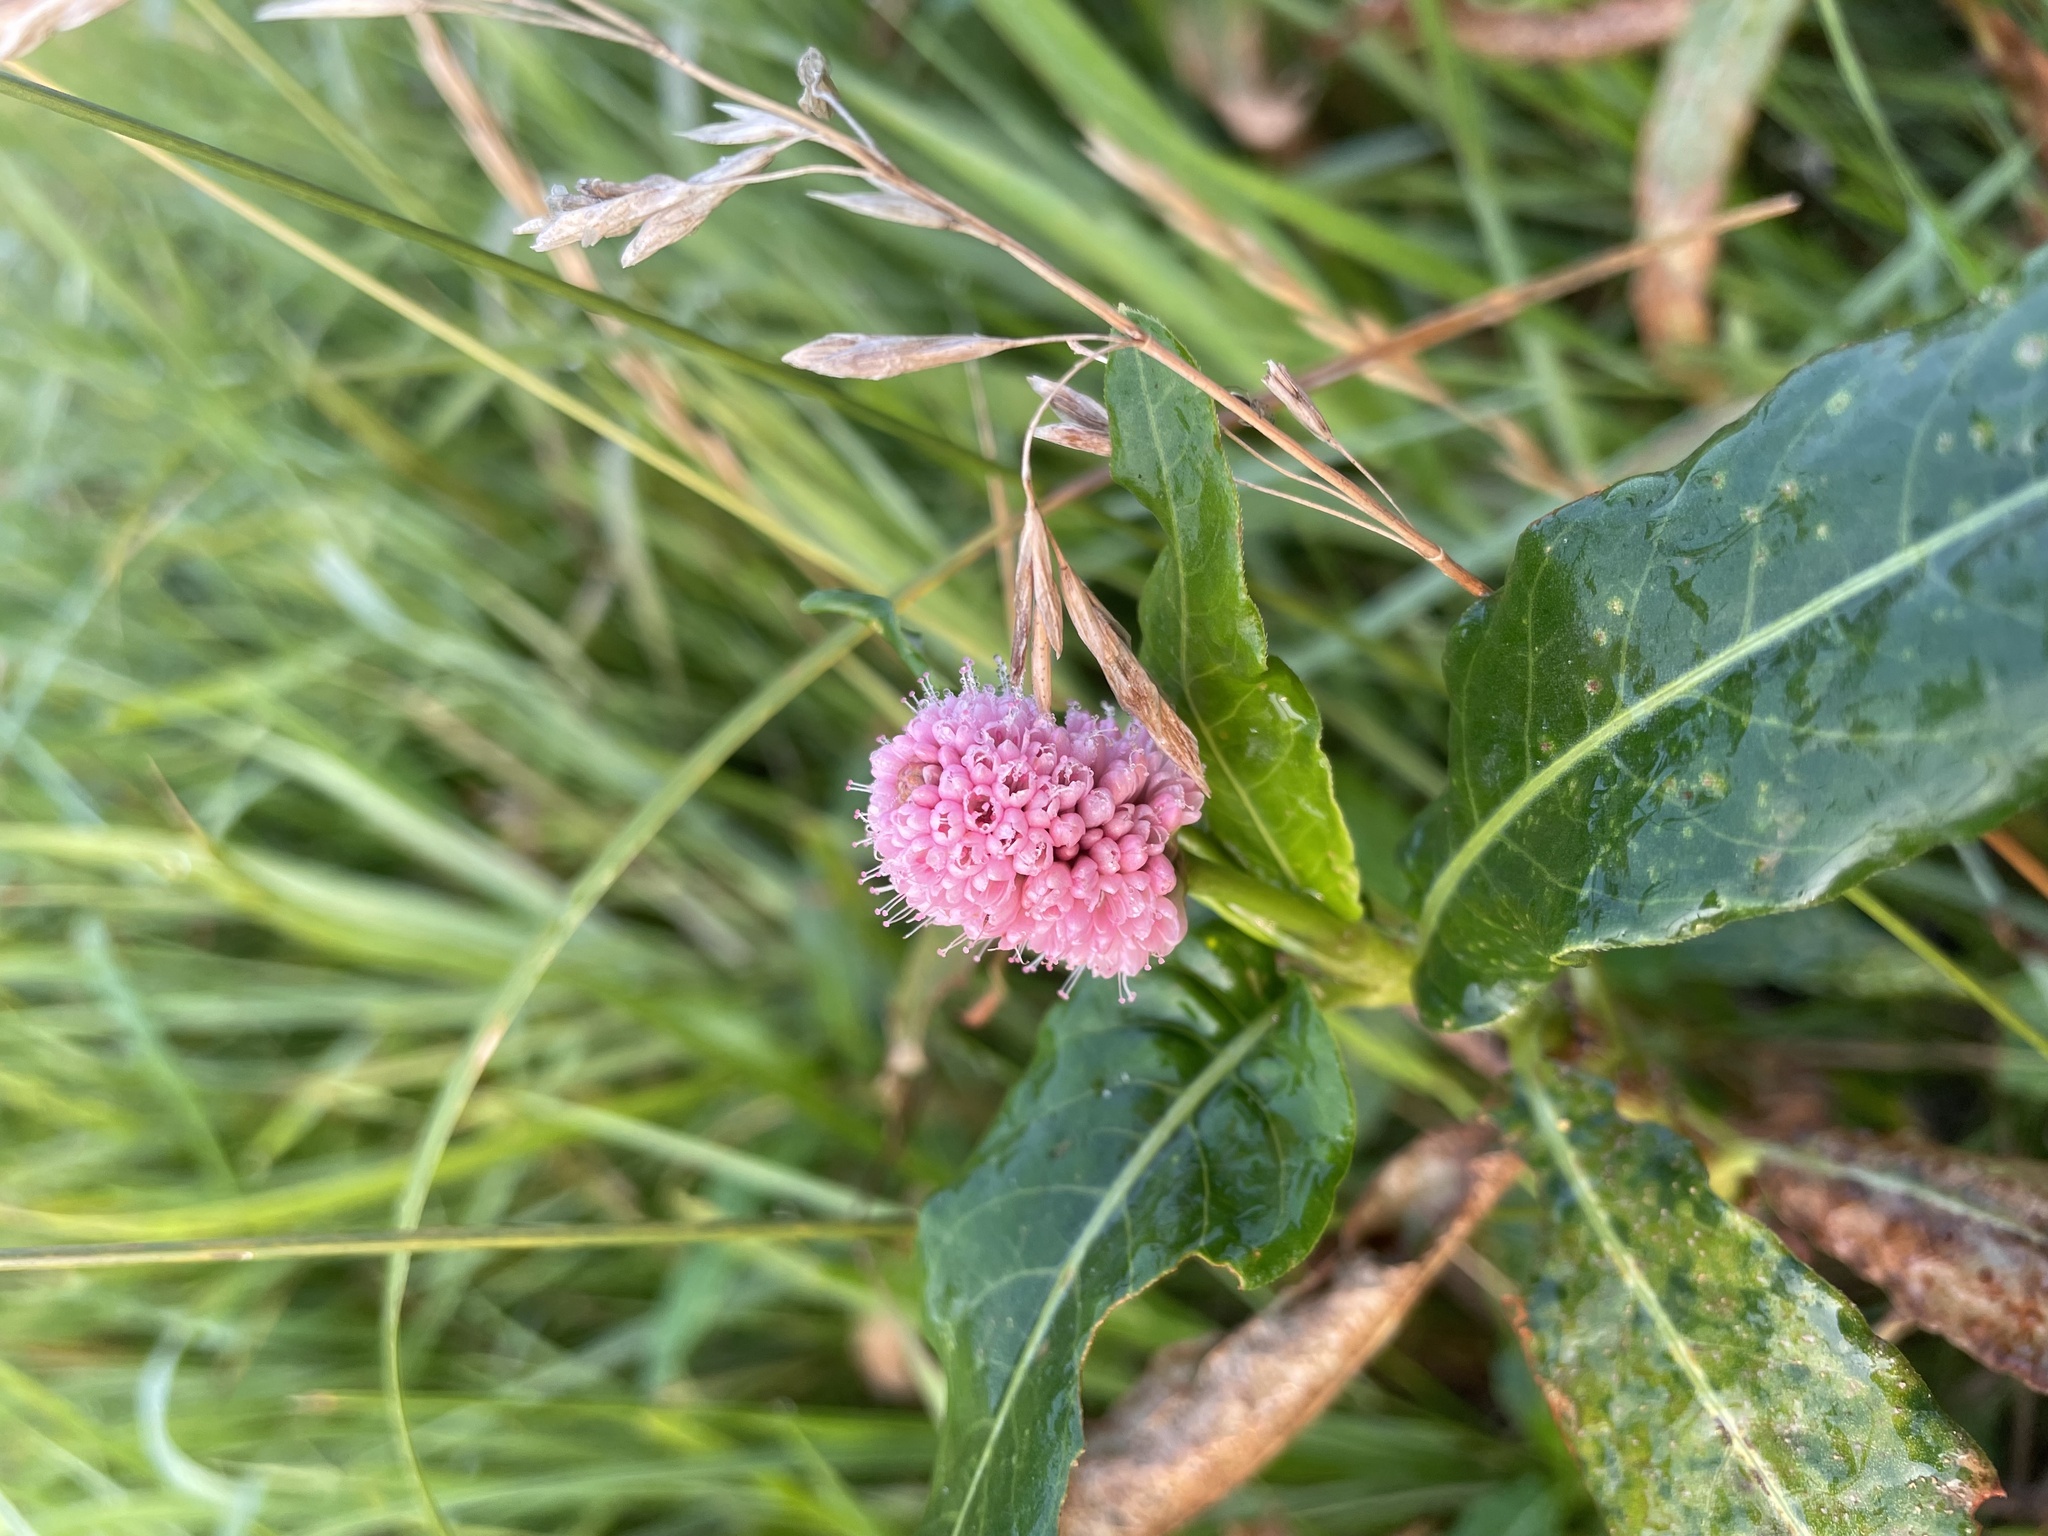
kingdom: Plantae
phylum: Tracheophyta
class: Magnoliopsida
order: Caryophyllales
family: Polygonaceae
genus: Persicaria
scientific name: Persicaria amphibia
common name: Amphibious bistort
